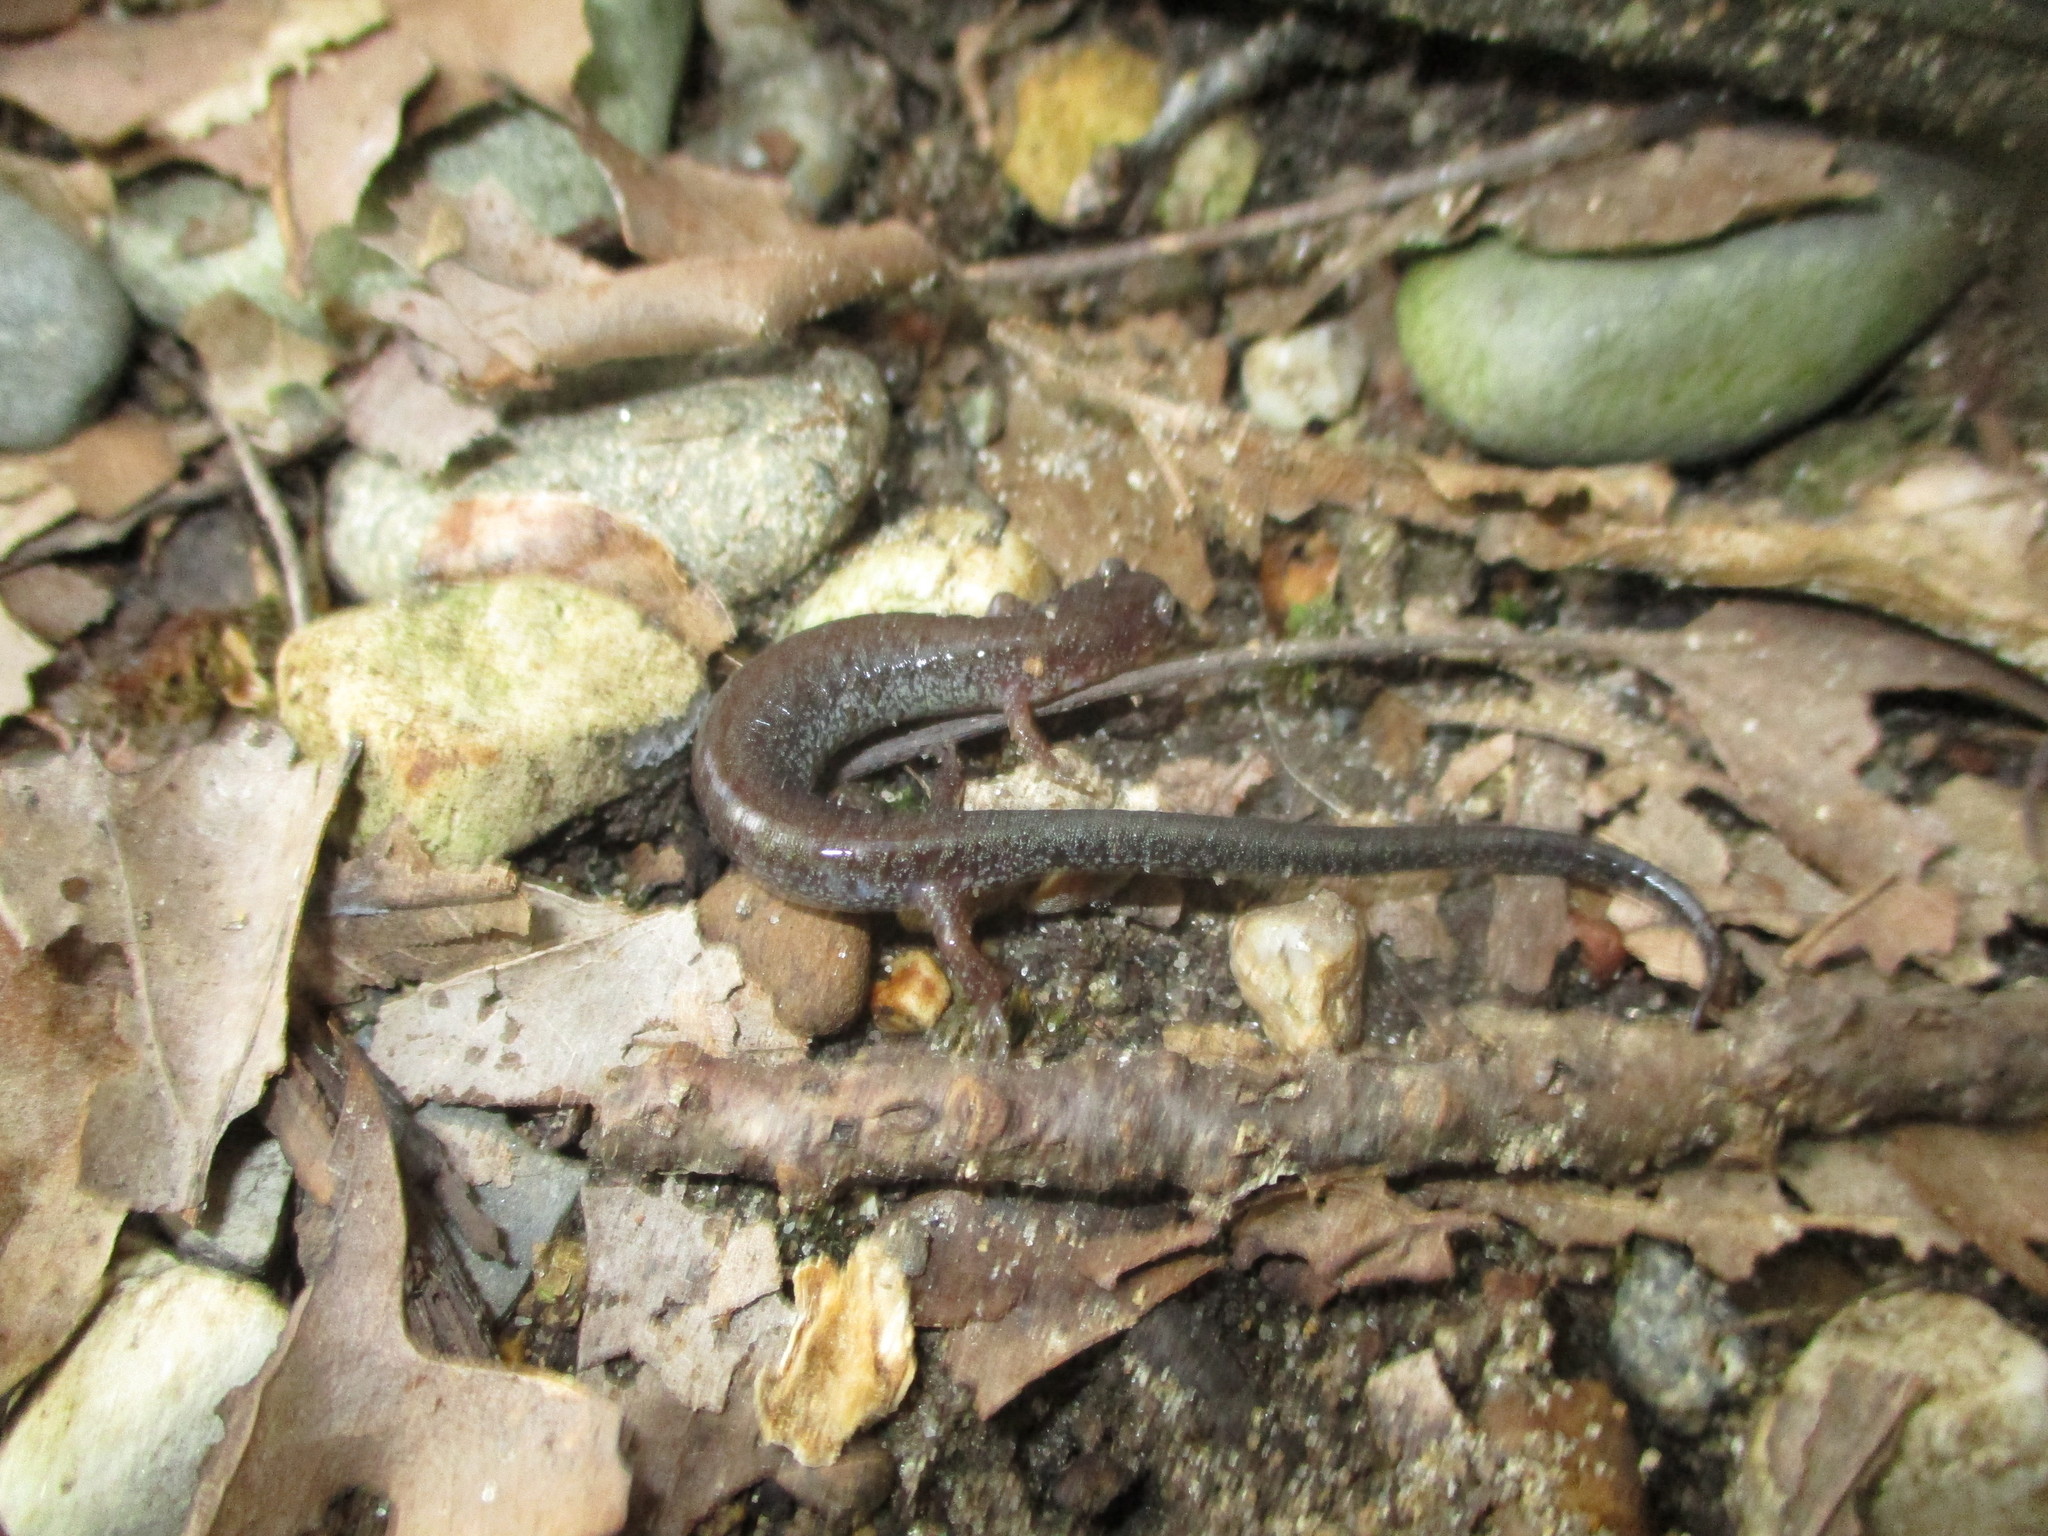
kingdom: Animalia
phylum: Chordata
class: Amphibia
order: Caudata
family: Plethodontidae
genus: Plethodon
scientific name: Plethodon cinereus
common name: Redback salamander
